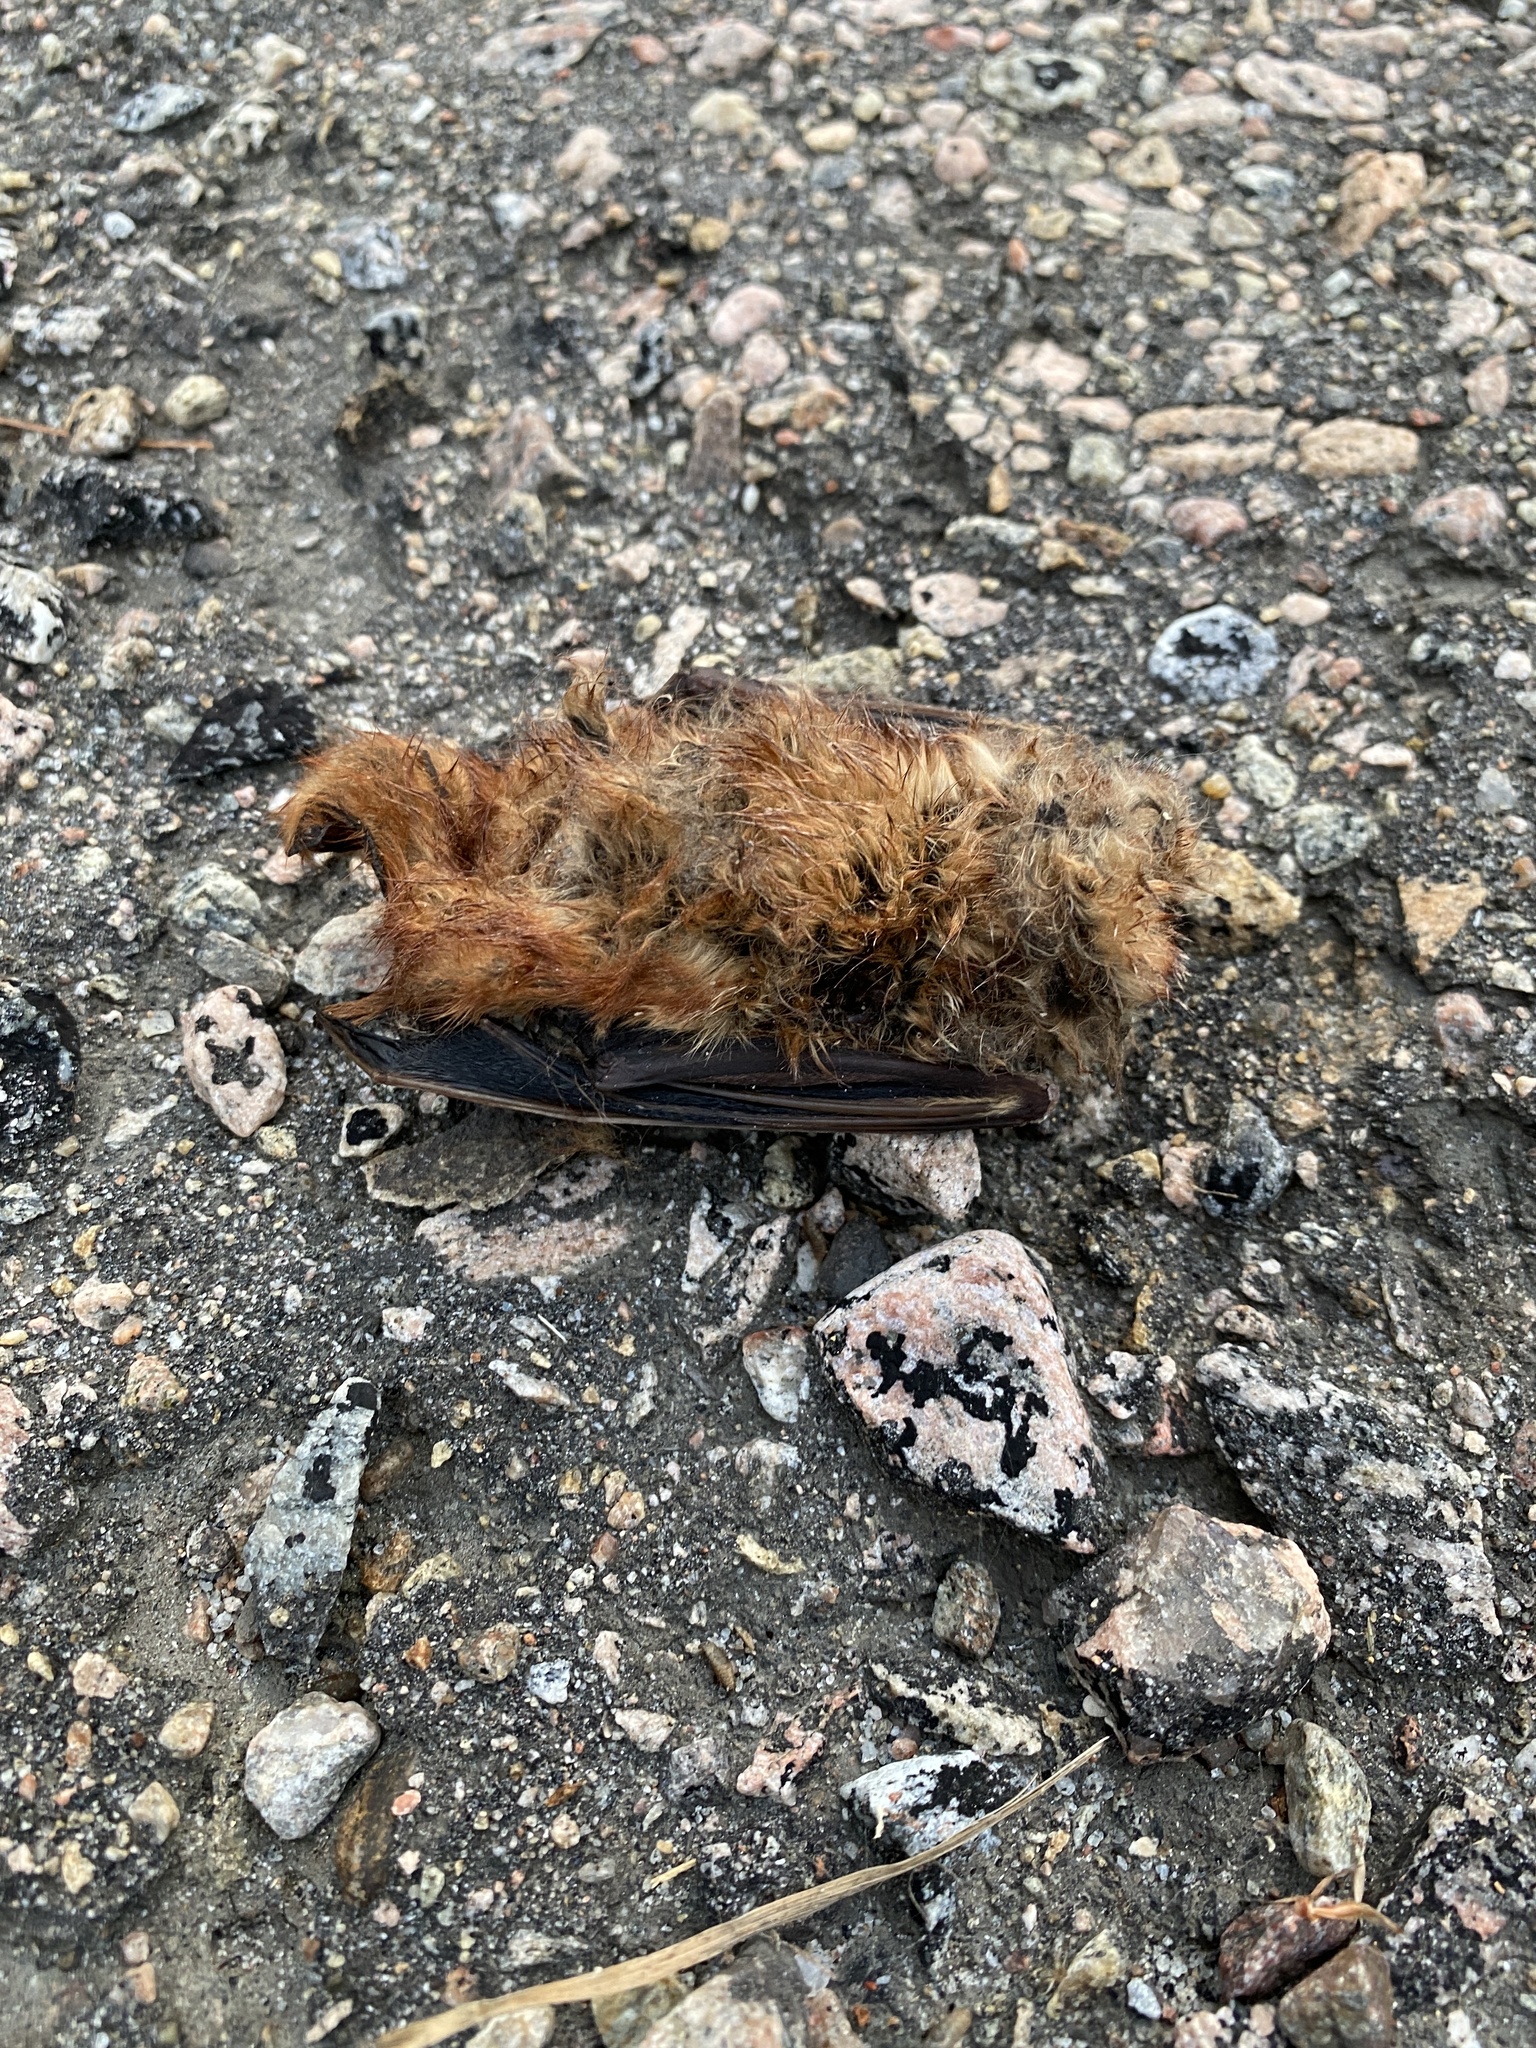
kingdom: Animalia
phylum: Chordata
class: Mammalia
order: Chiroptera
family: Vespertilionidae
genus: Lasiurus
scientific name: Lasiurus borealis
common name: Eastern red bat
